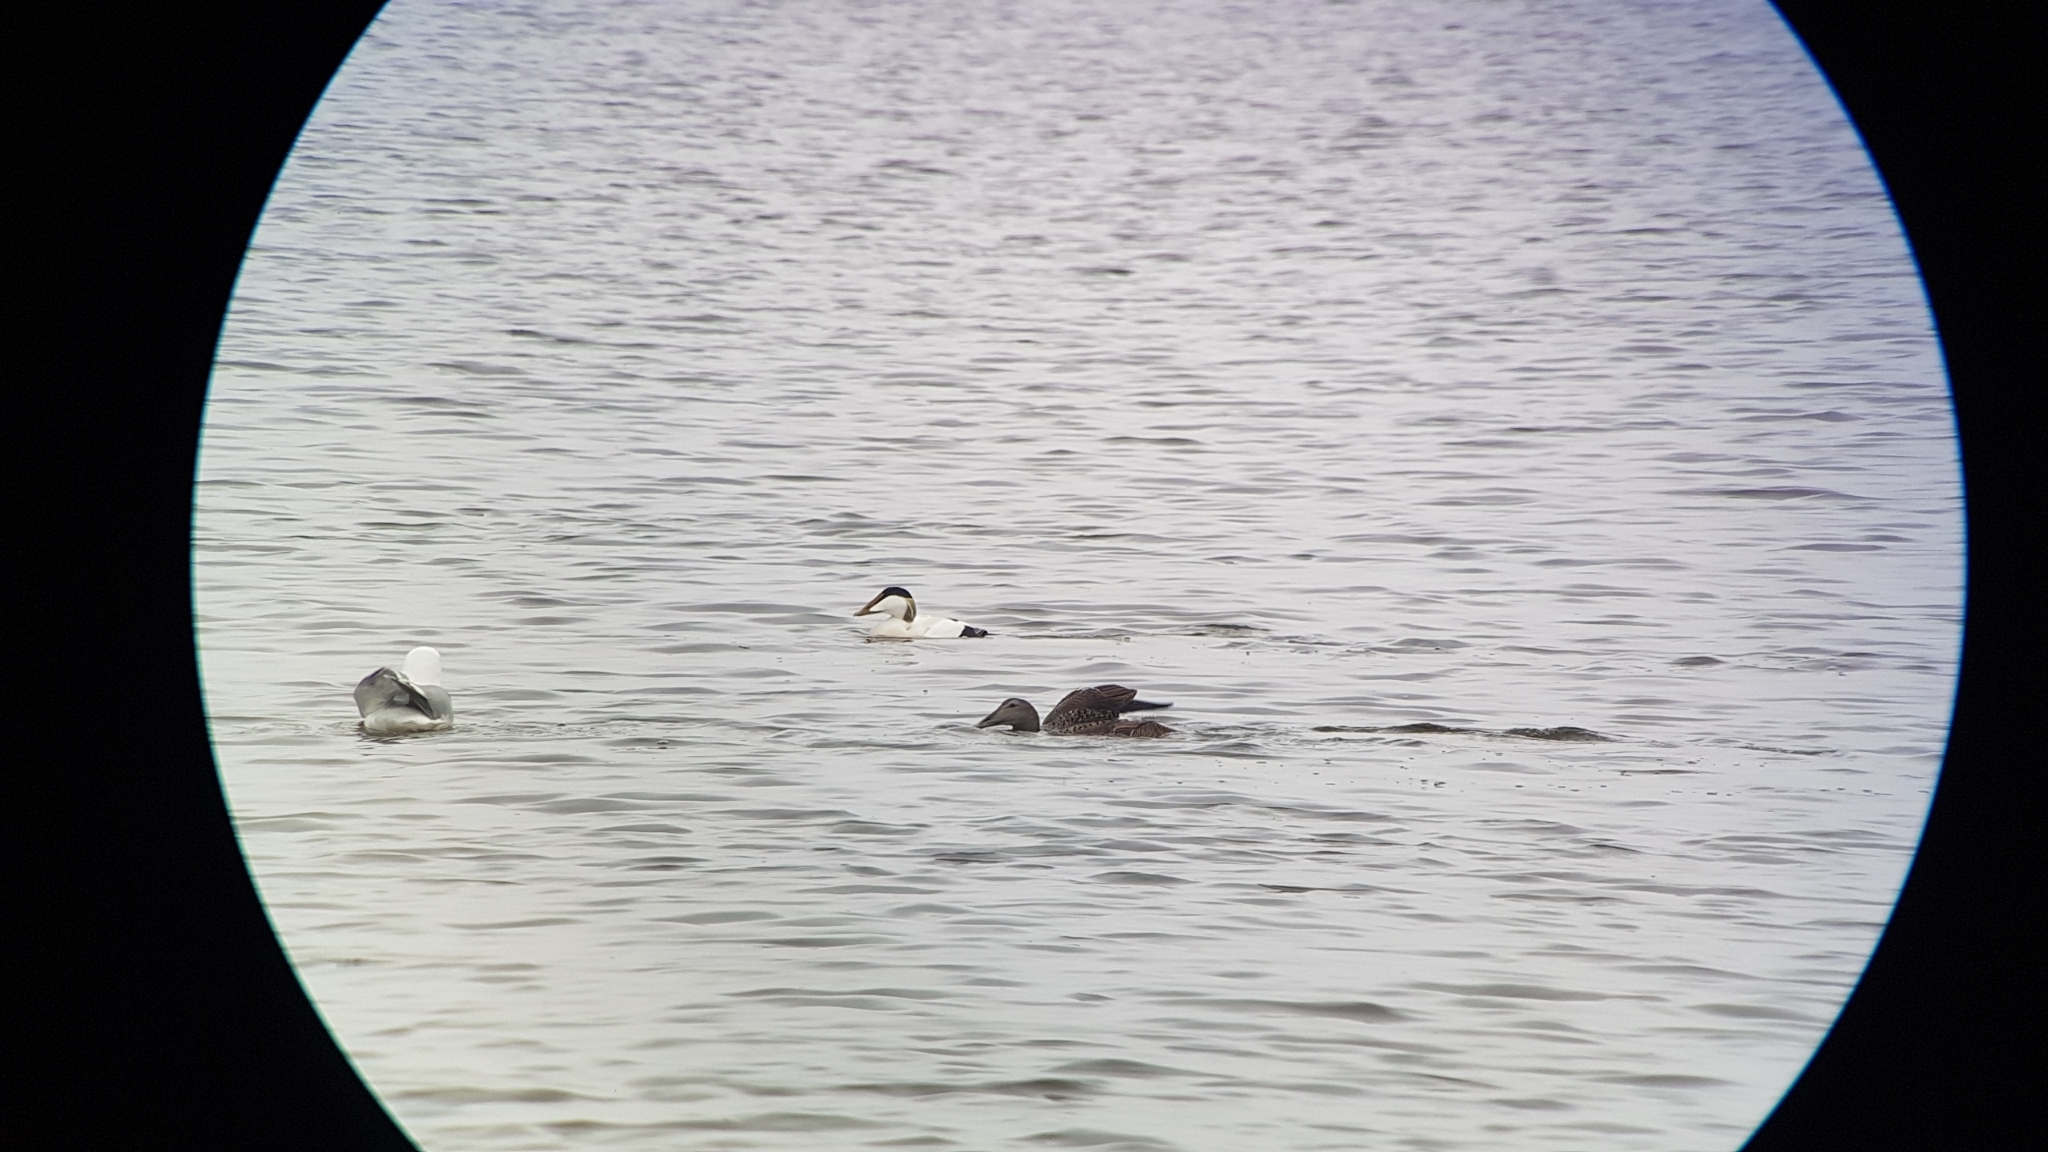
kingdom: Animalia
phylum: Chordata
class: Aves
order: Anseriformes
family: Anatidae
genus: Somateria
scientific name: Somateria mollissima
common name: Common eider
